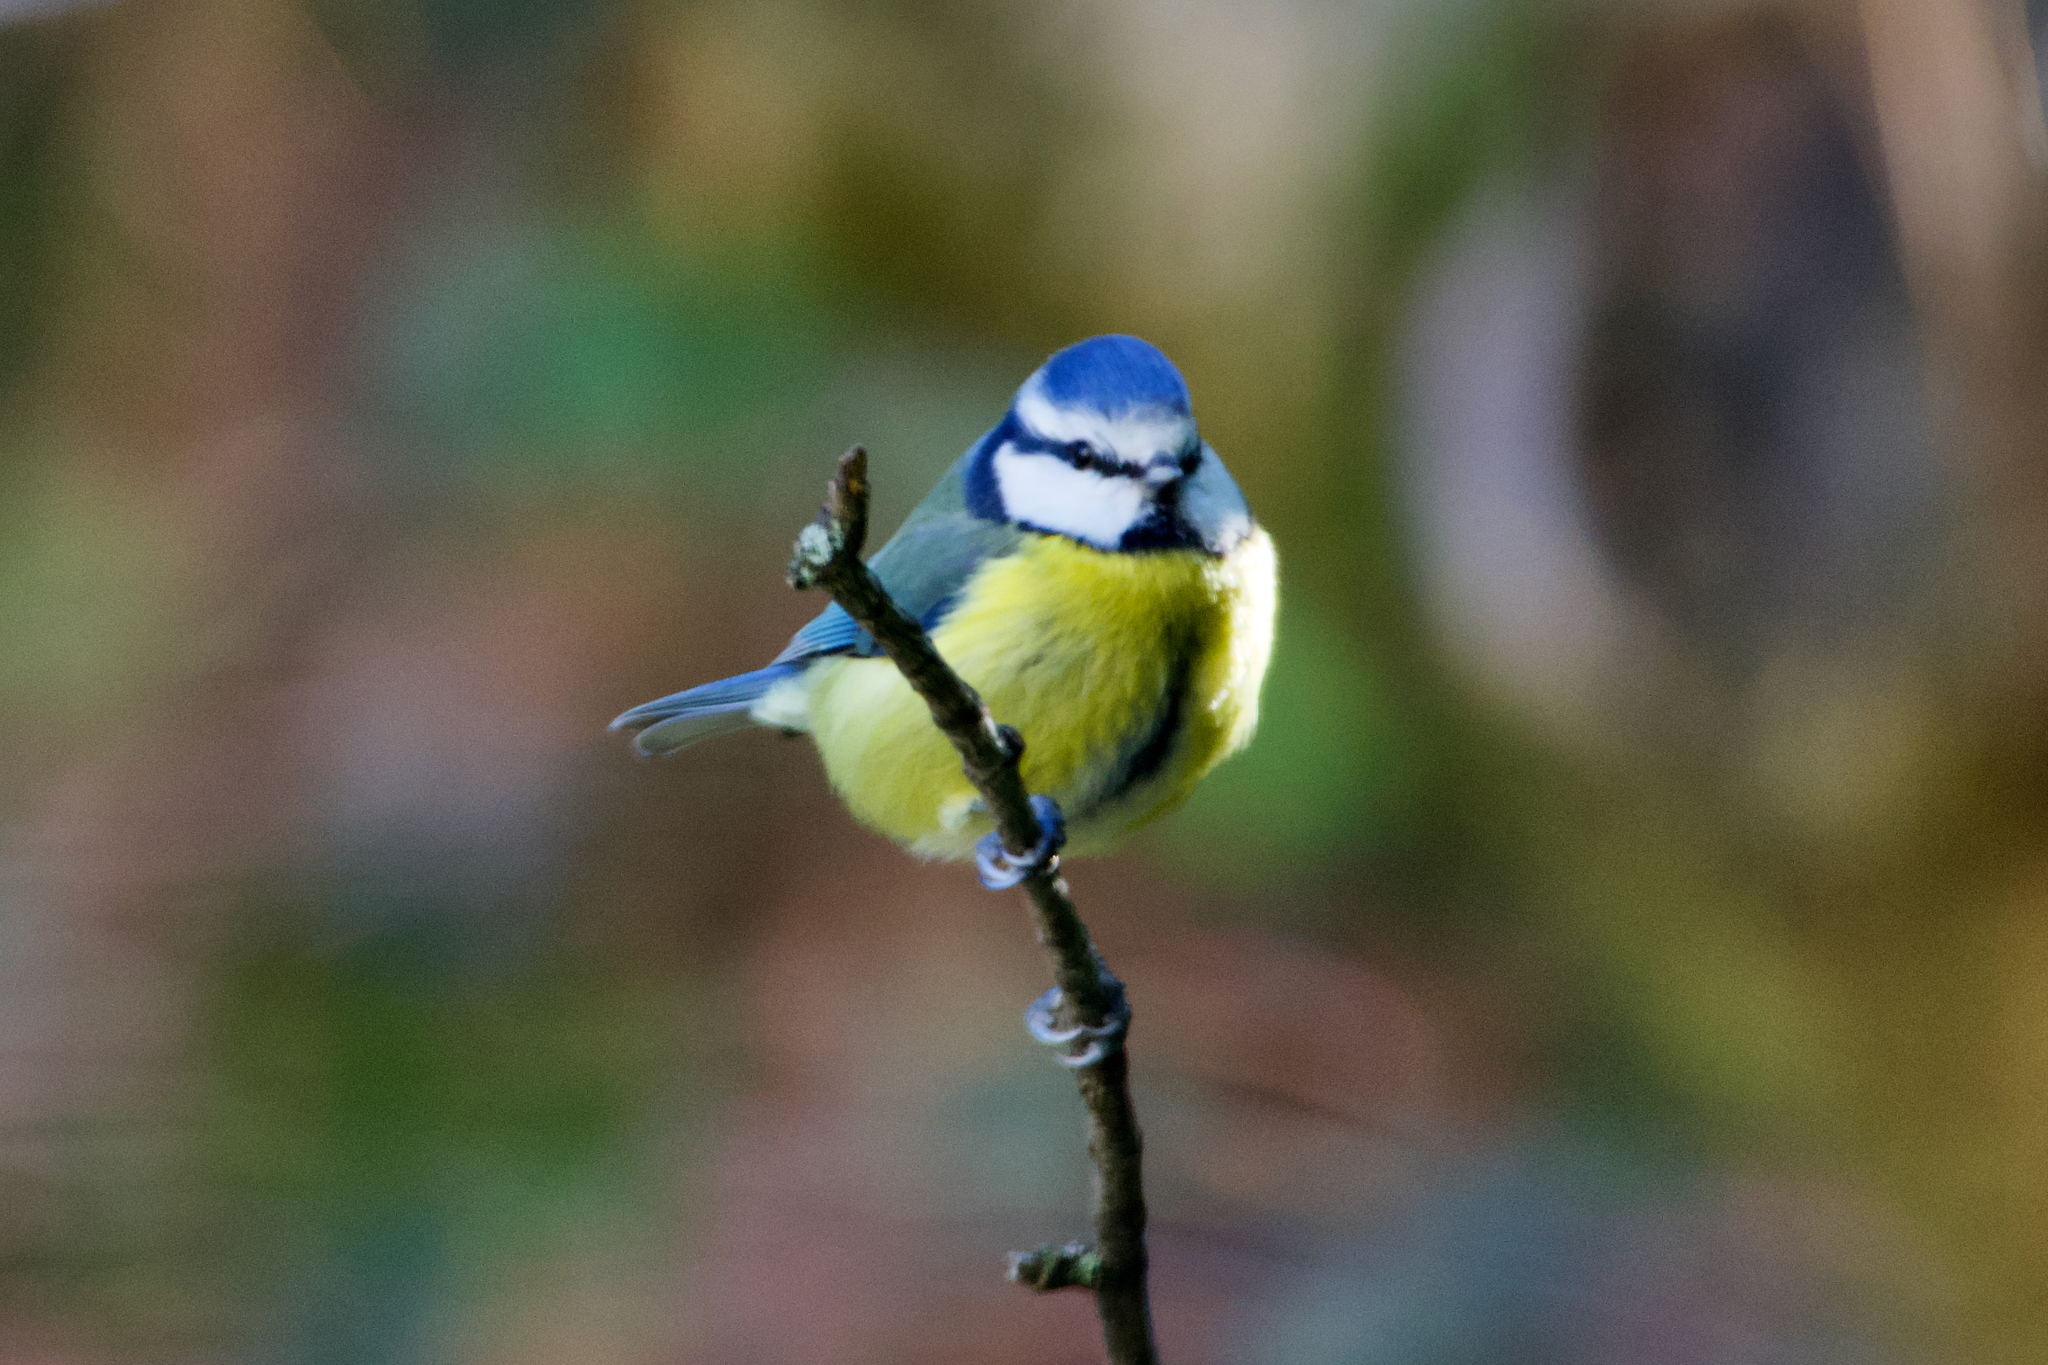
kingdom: Animalia
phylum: Chordata
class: Aves
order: Passeriformes
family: Paridae
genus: Cyanistes
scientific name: Cyanistes caeruleus
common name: Eurasian blue tit
